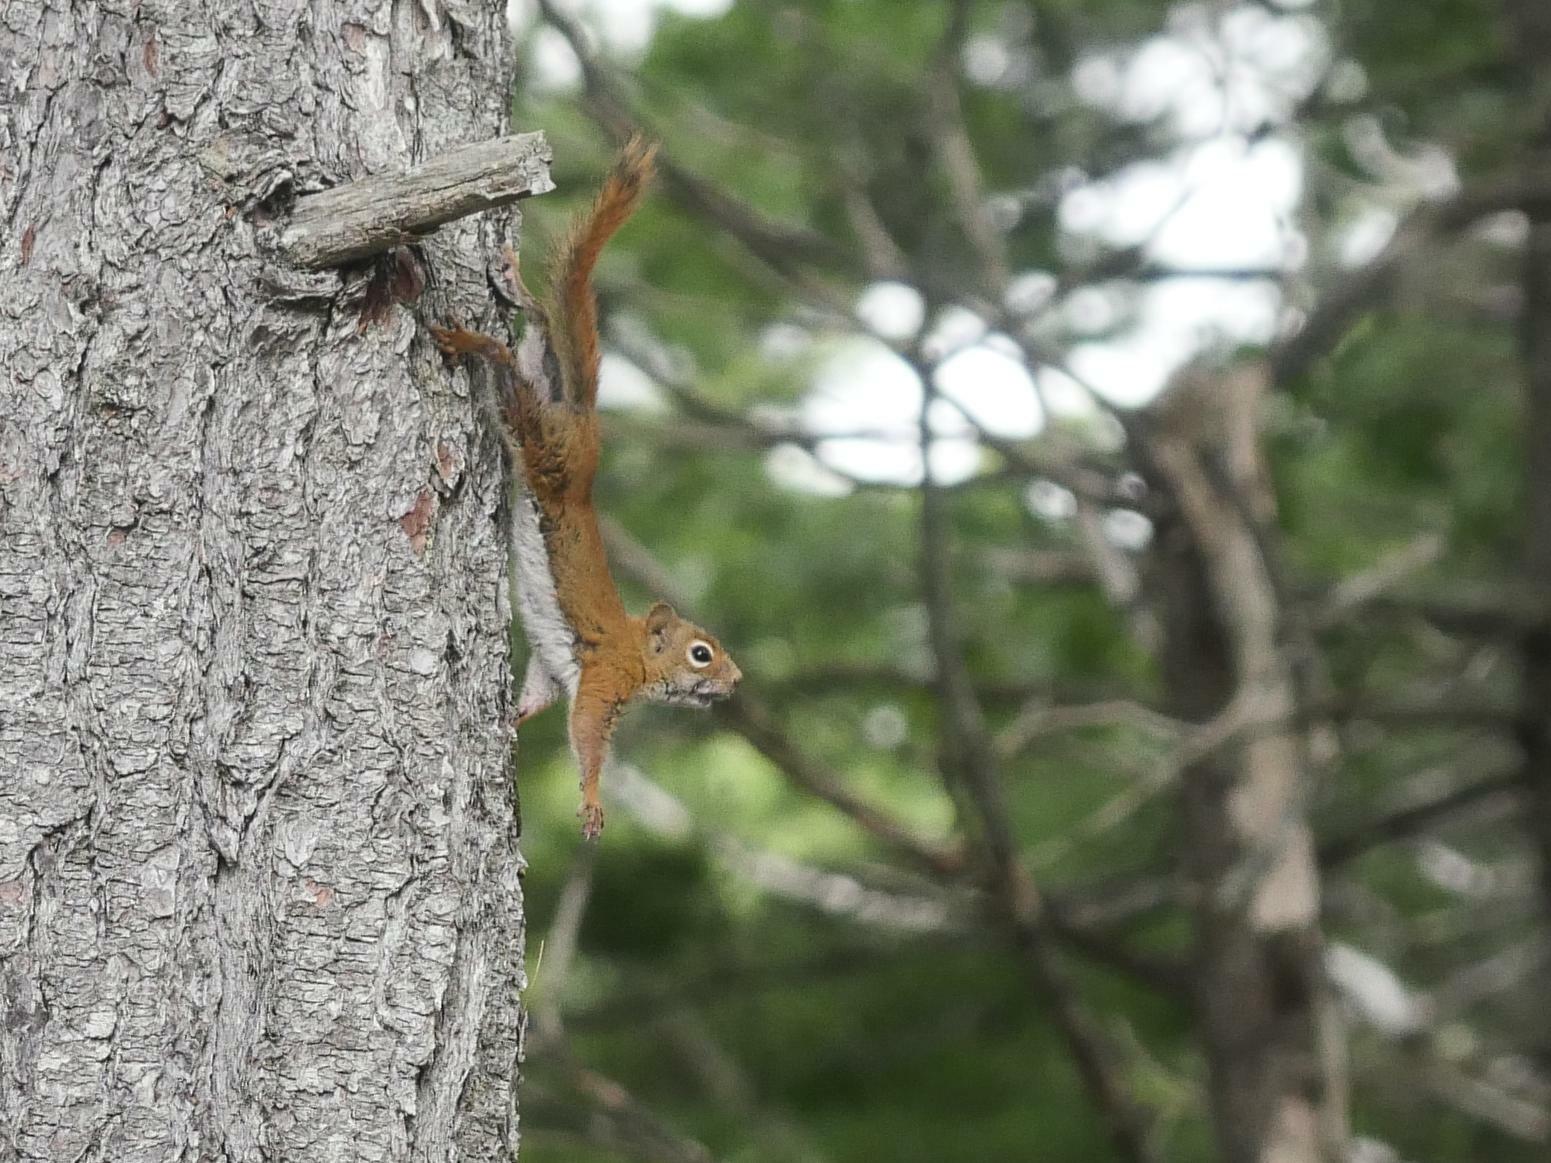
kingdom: Animalia
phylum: Chordata
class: Mammalia
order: Rodentia
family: Sciuridae
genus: Tamiasciurus
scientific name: Tamiasciurus hudsonicus
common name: Red squirrel
